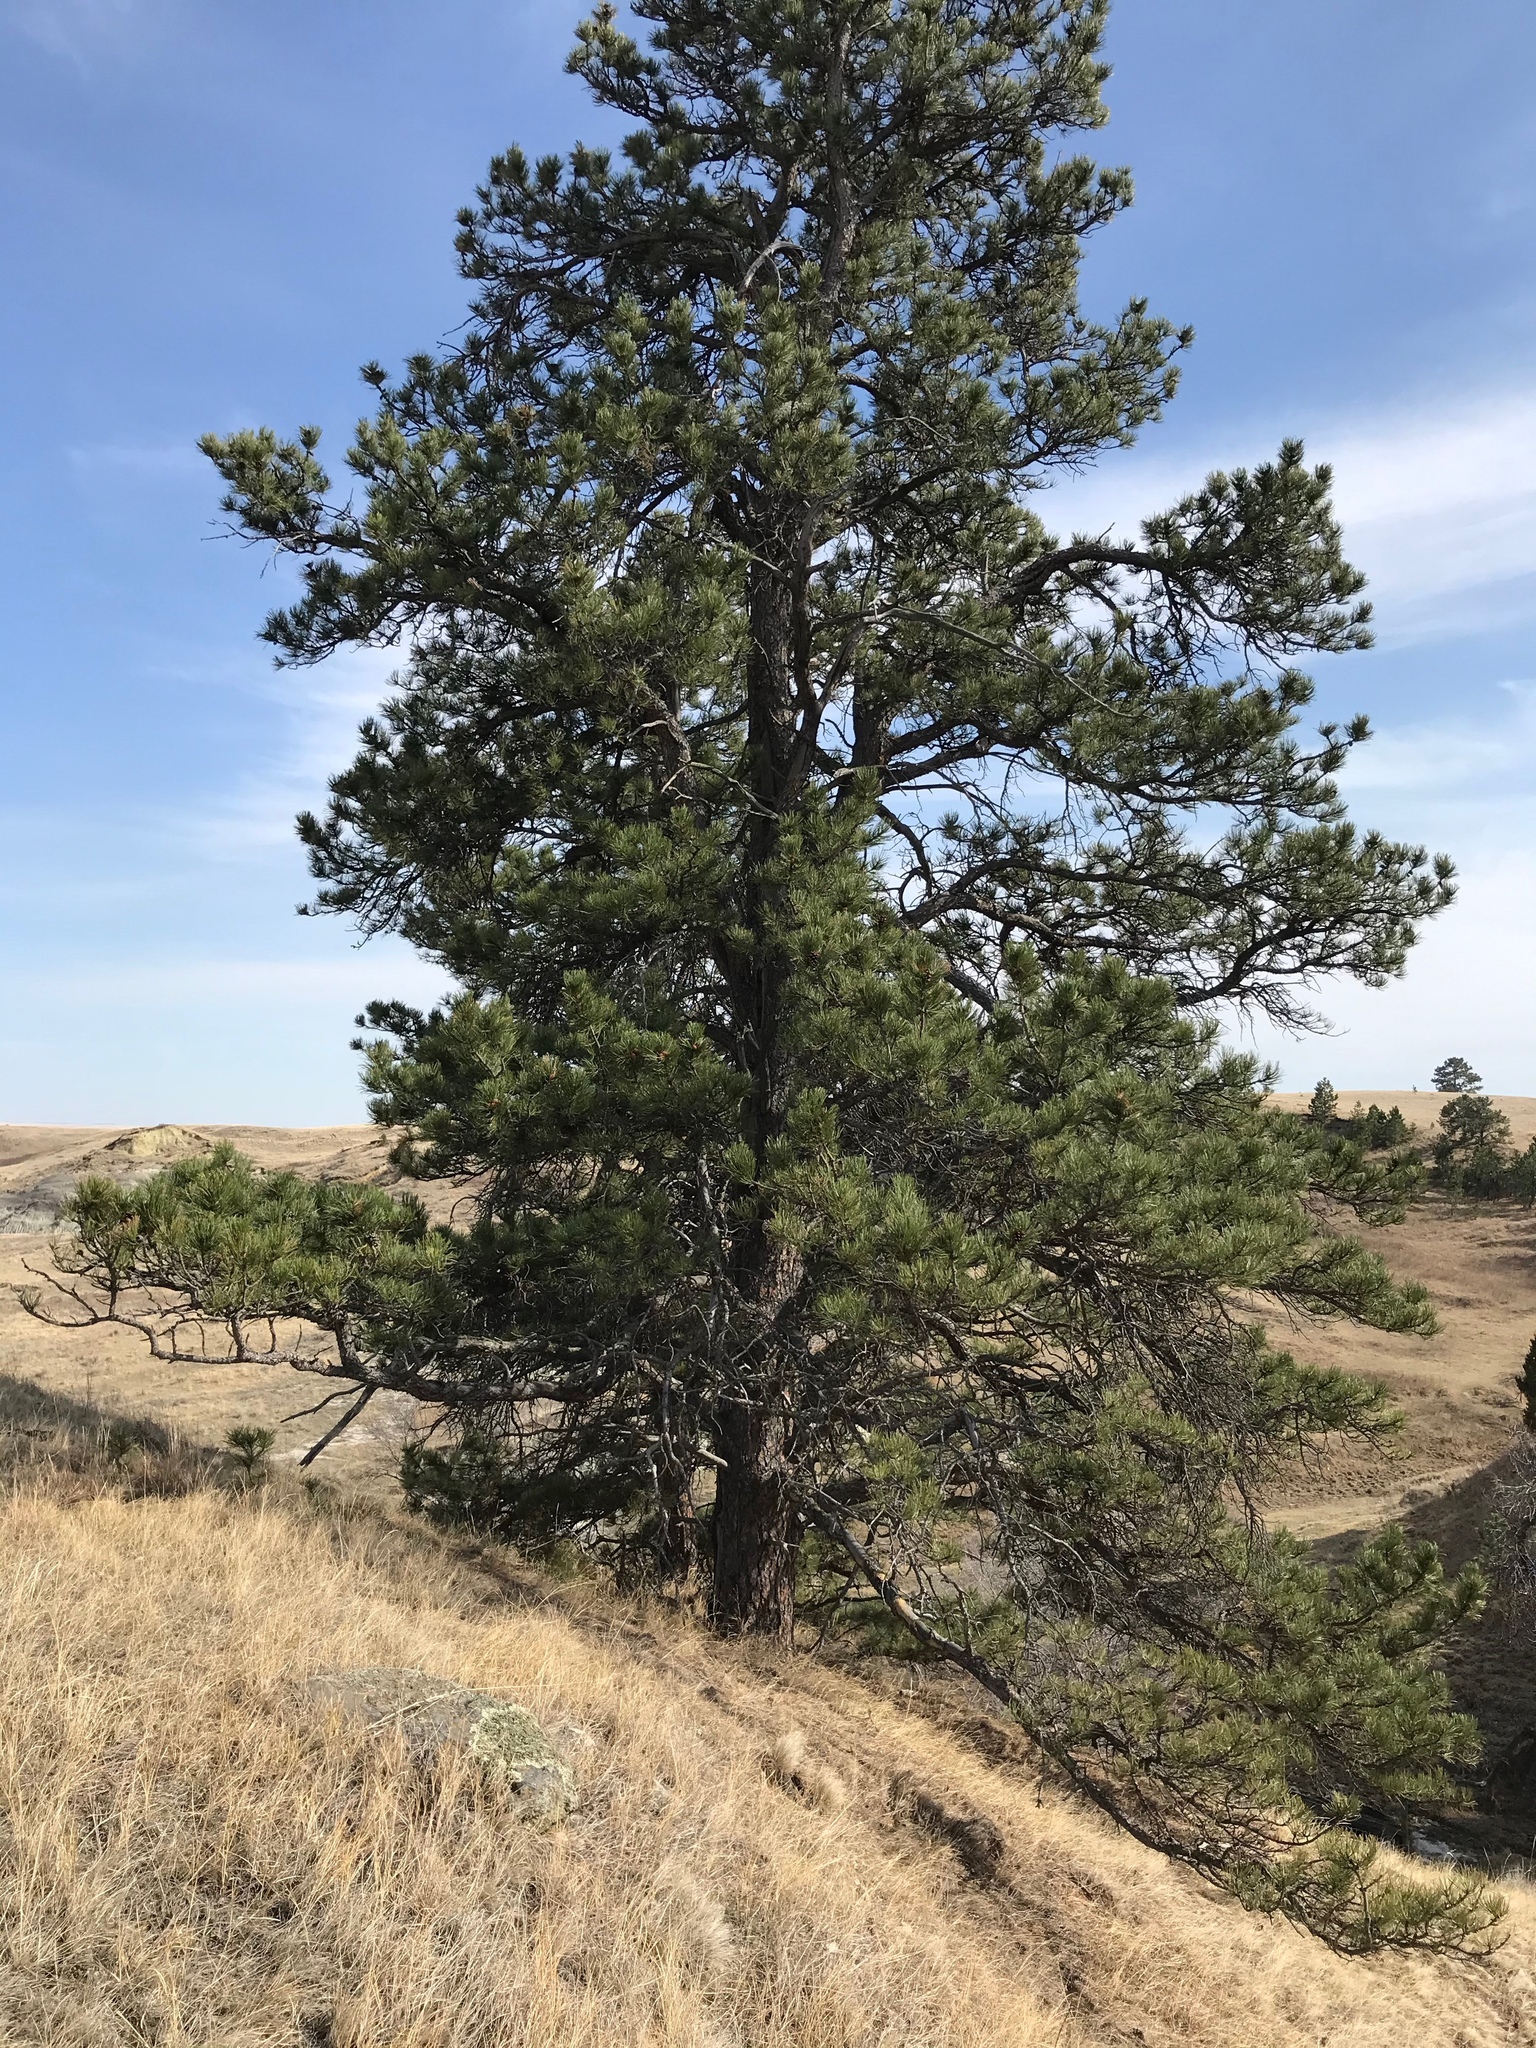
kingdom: Plantae
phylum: Tracheophyta
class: Pinopsida
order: Pinales
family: Pinaceae
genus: Pinus
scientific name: Pinus ponderosa
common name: Western yellow-pine
